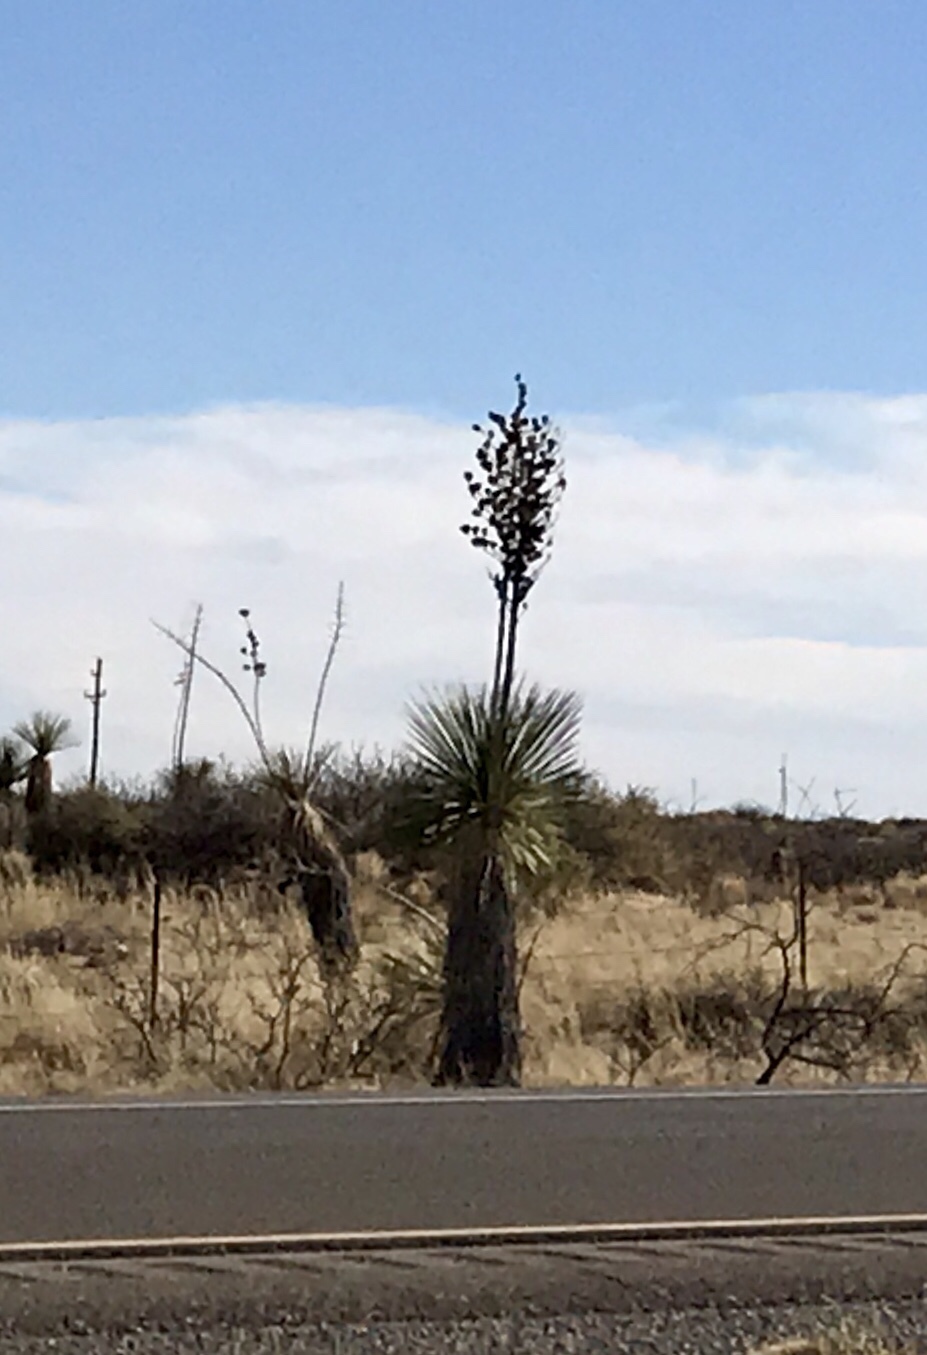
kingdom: Plantae
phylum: Tracheophyta
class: Liliopsida
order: Asparagales
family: Asparagaceae
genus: Yucca
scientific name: Yucca elata
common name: Palmella
